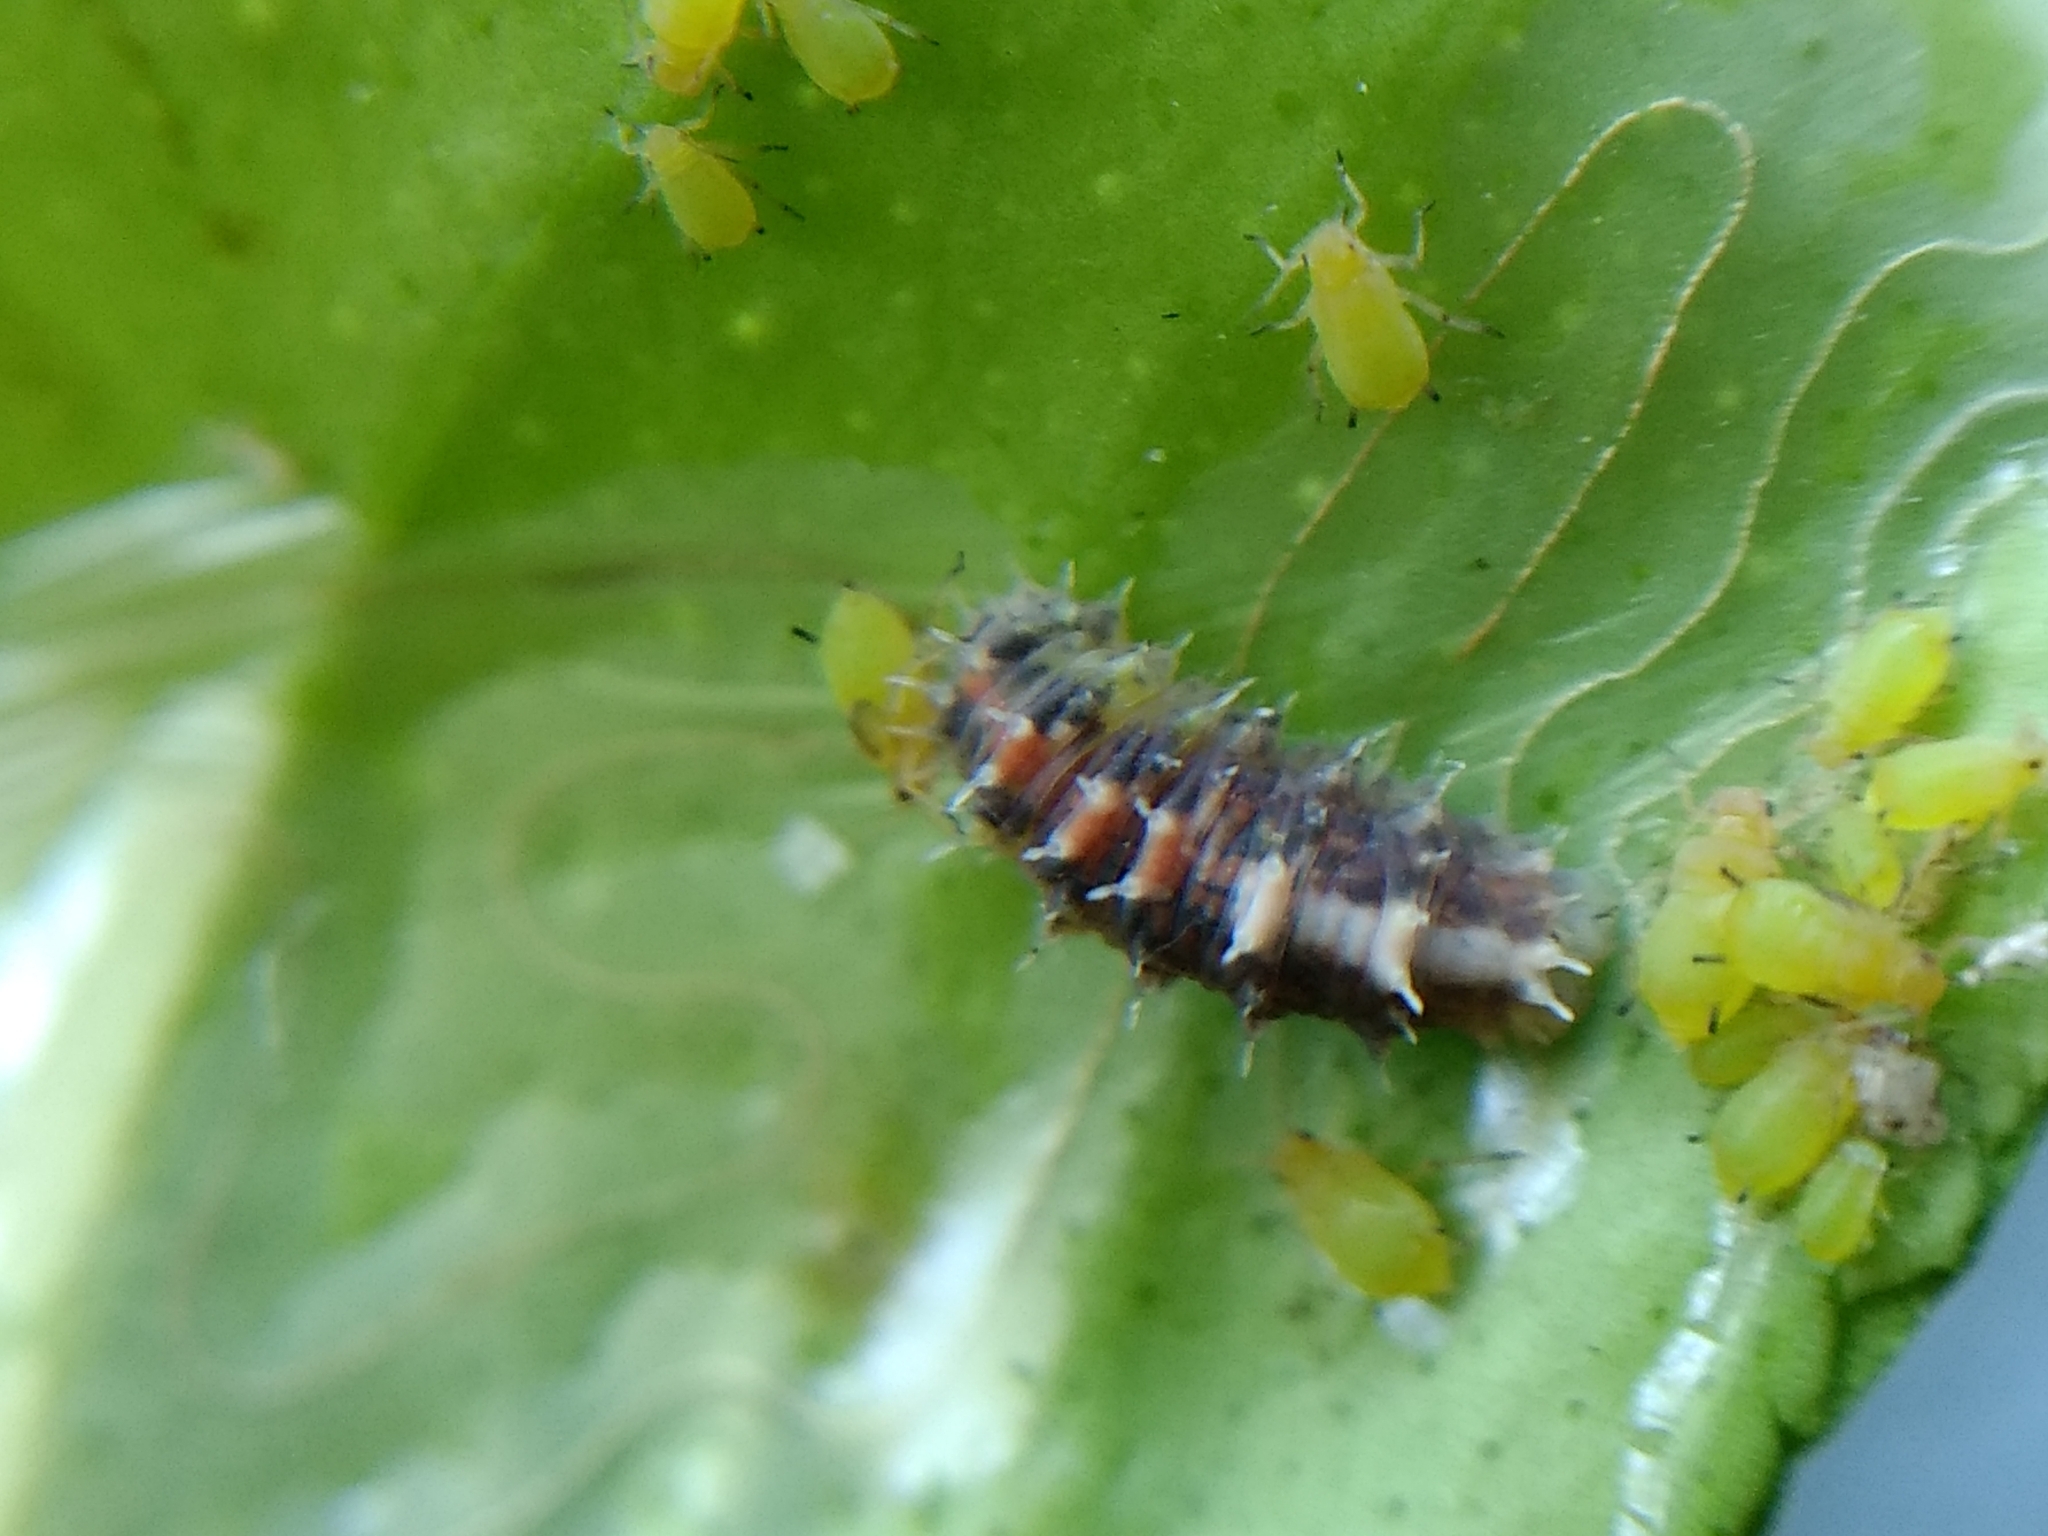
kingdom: Animalia
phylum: Arthropoda
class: Insecta
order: Diptera
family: Syrphidae
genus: Dioprosopa
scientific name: Dioprosopa clavatus
